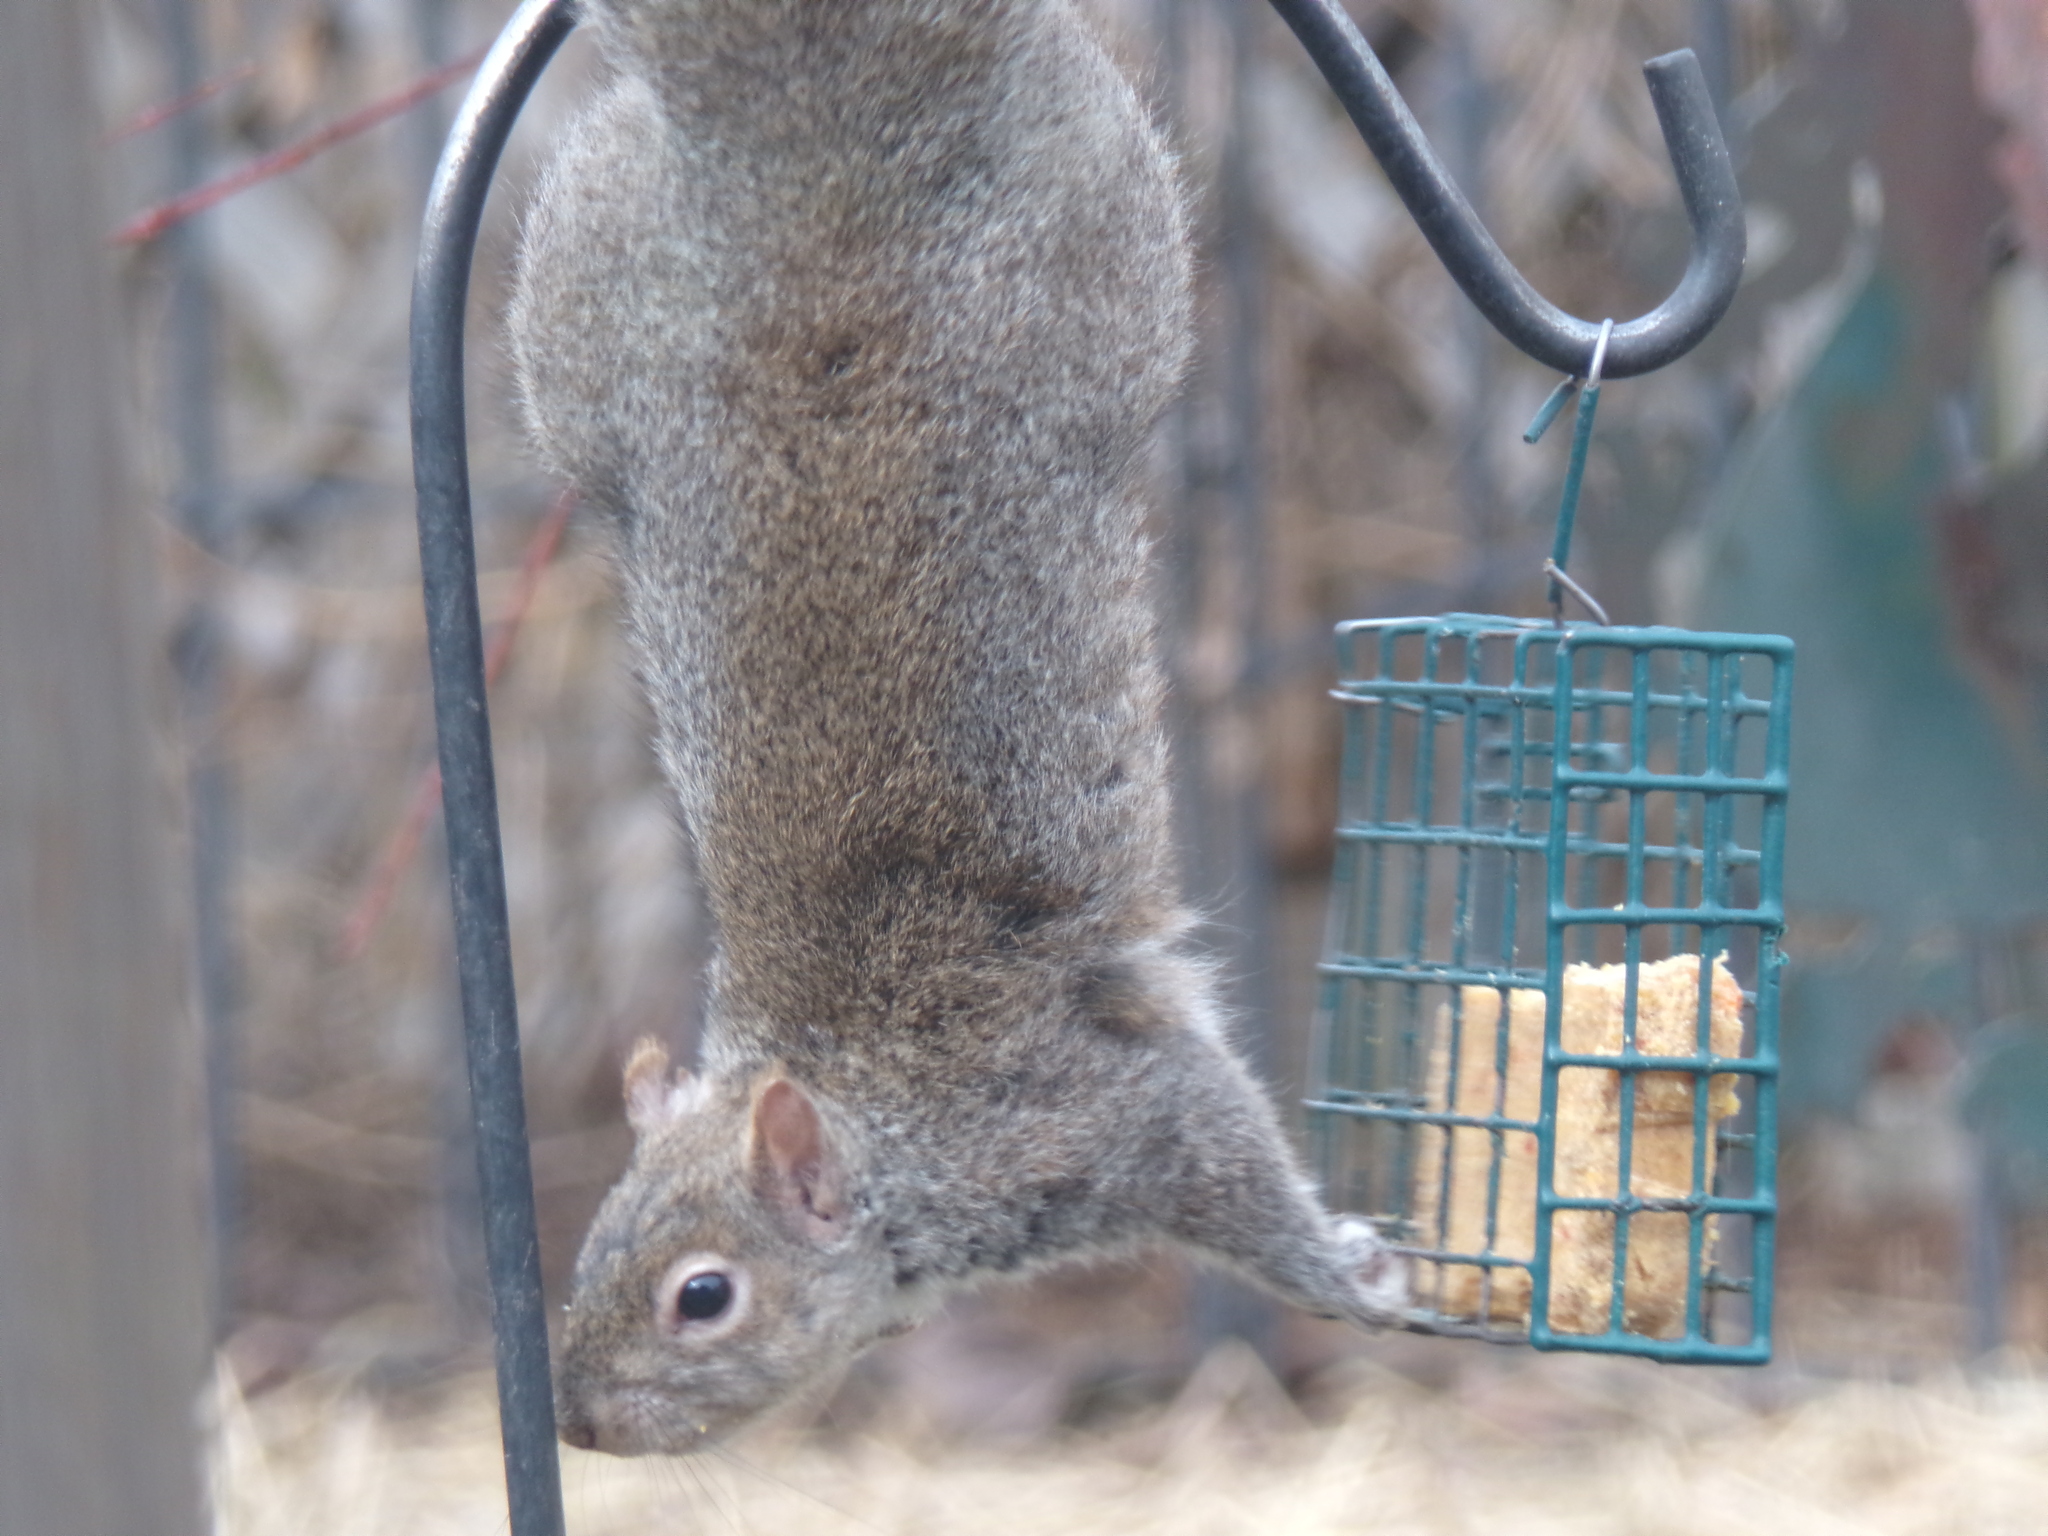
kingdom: Animalia
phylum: Chordata
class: Mammalia
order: Rodentia
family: Sciuridae
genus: Sciurus
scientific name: Sciurus carolinensis
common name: Eastern gray squirrel
